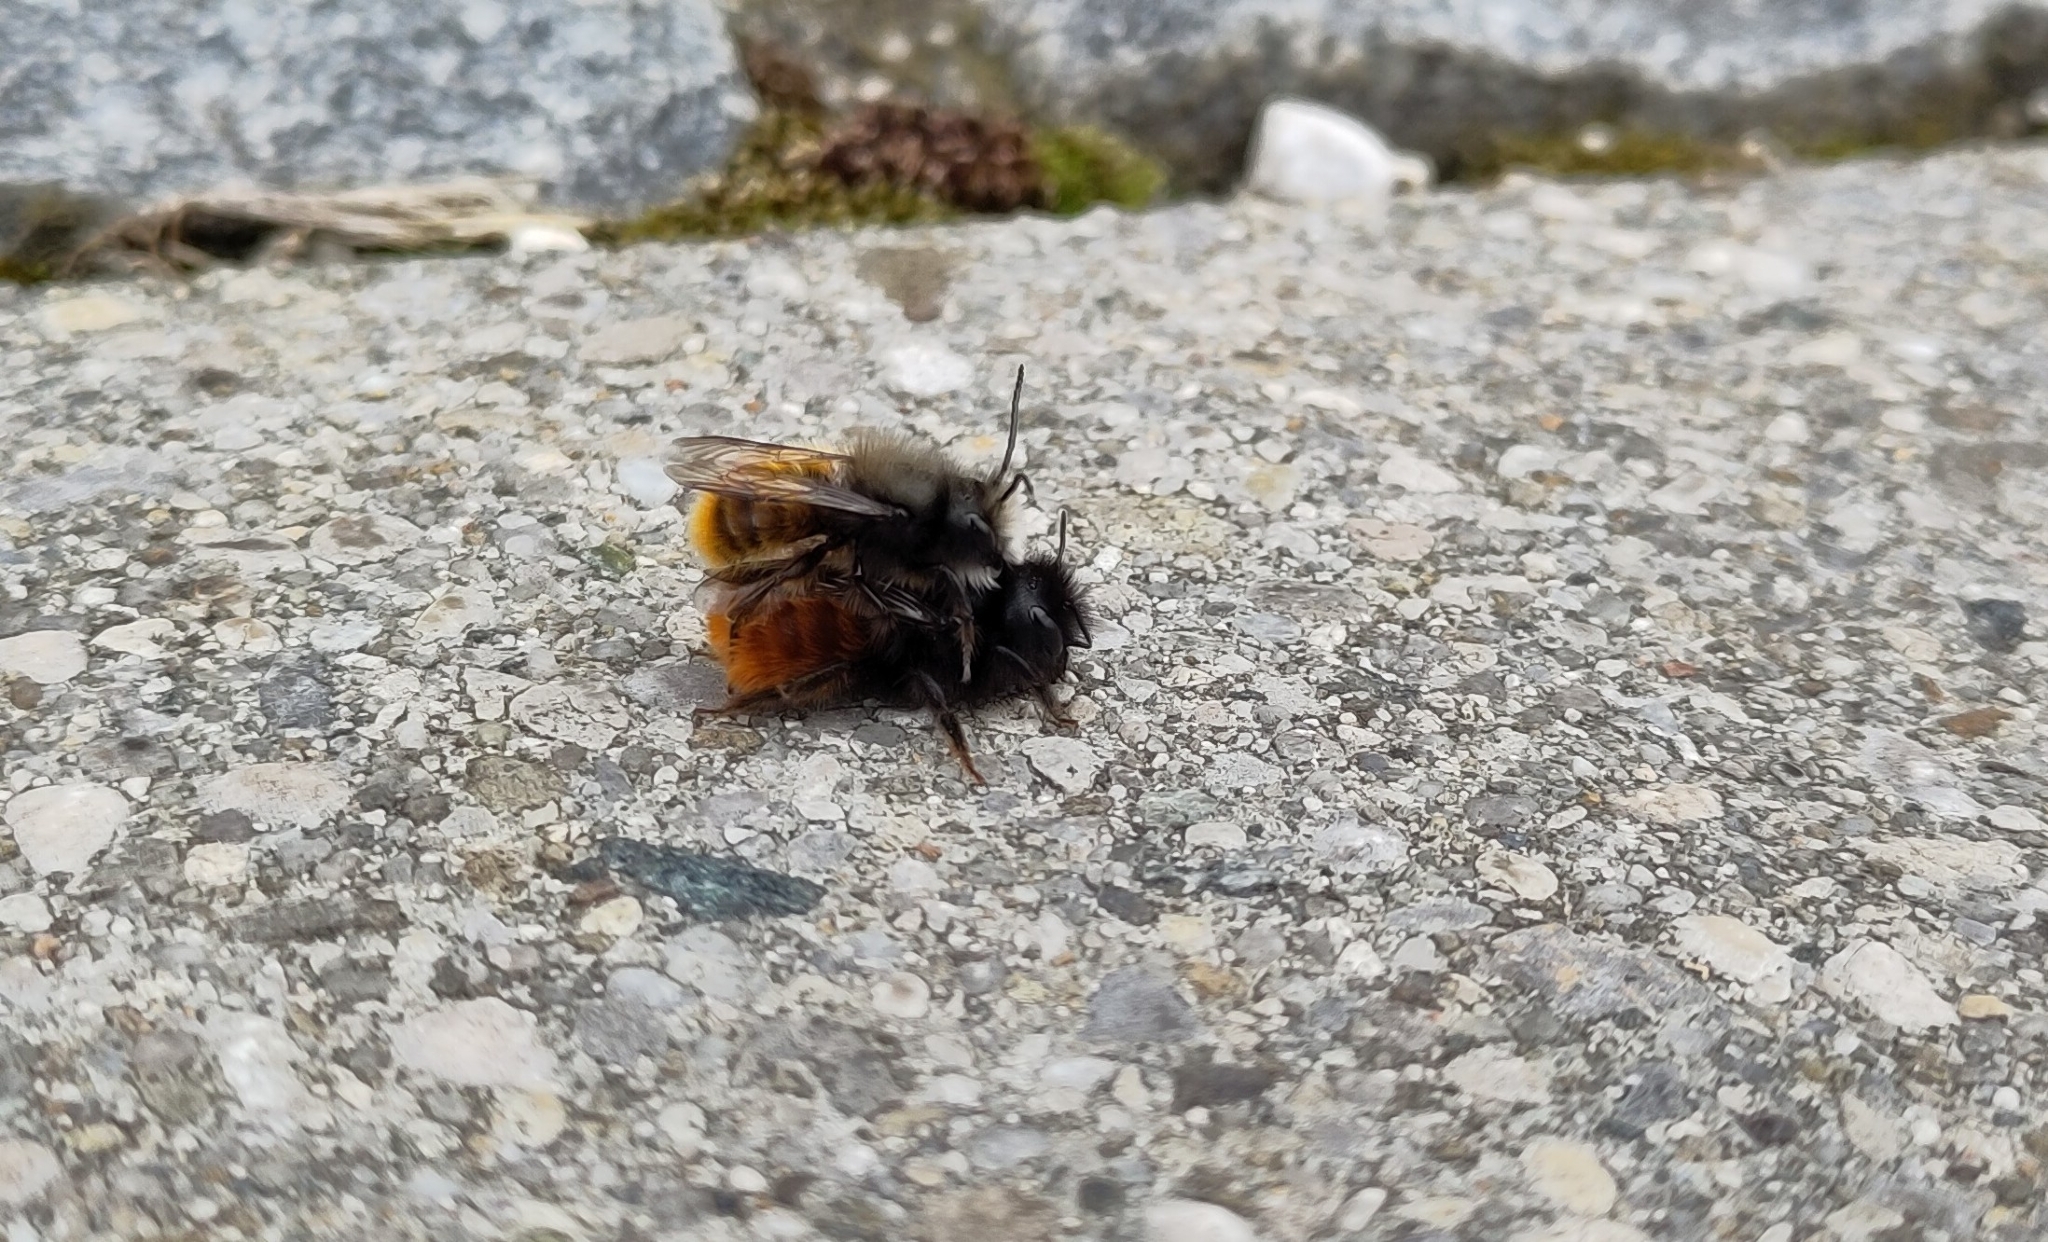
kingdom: Animalia
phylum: Arthropoda
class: Insecta
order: Hymenoptera
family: Megachilidae
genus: Osmia
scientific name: Osmia cornuta
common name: Mason bee
